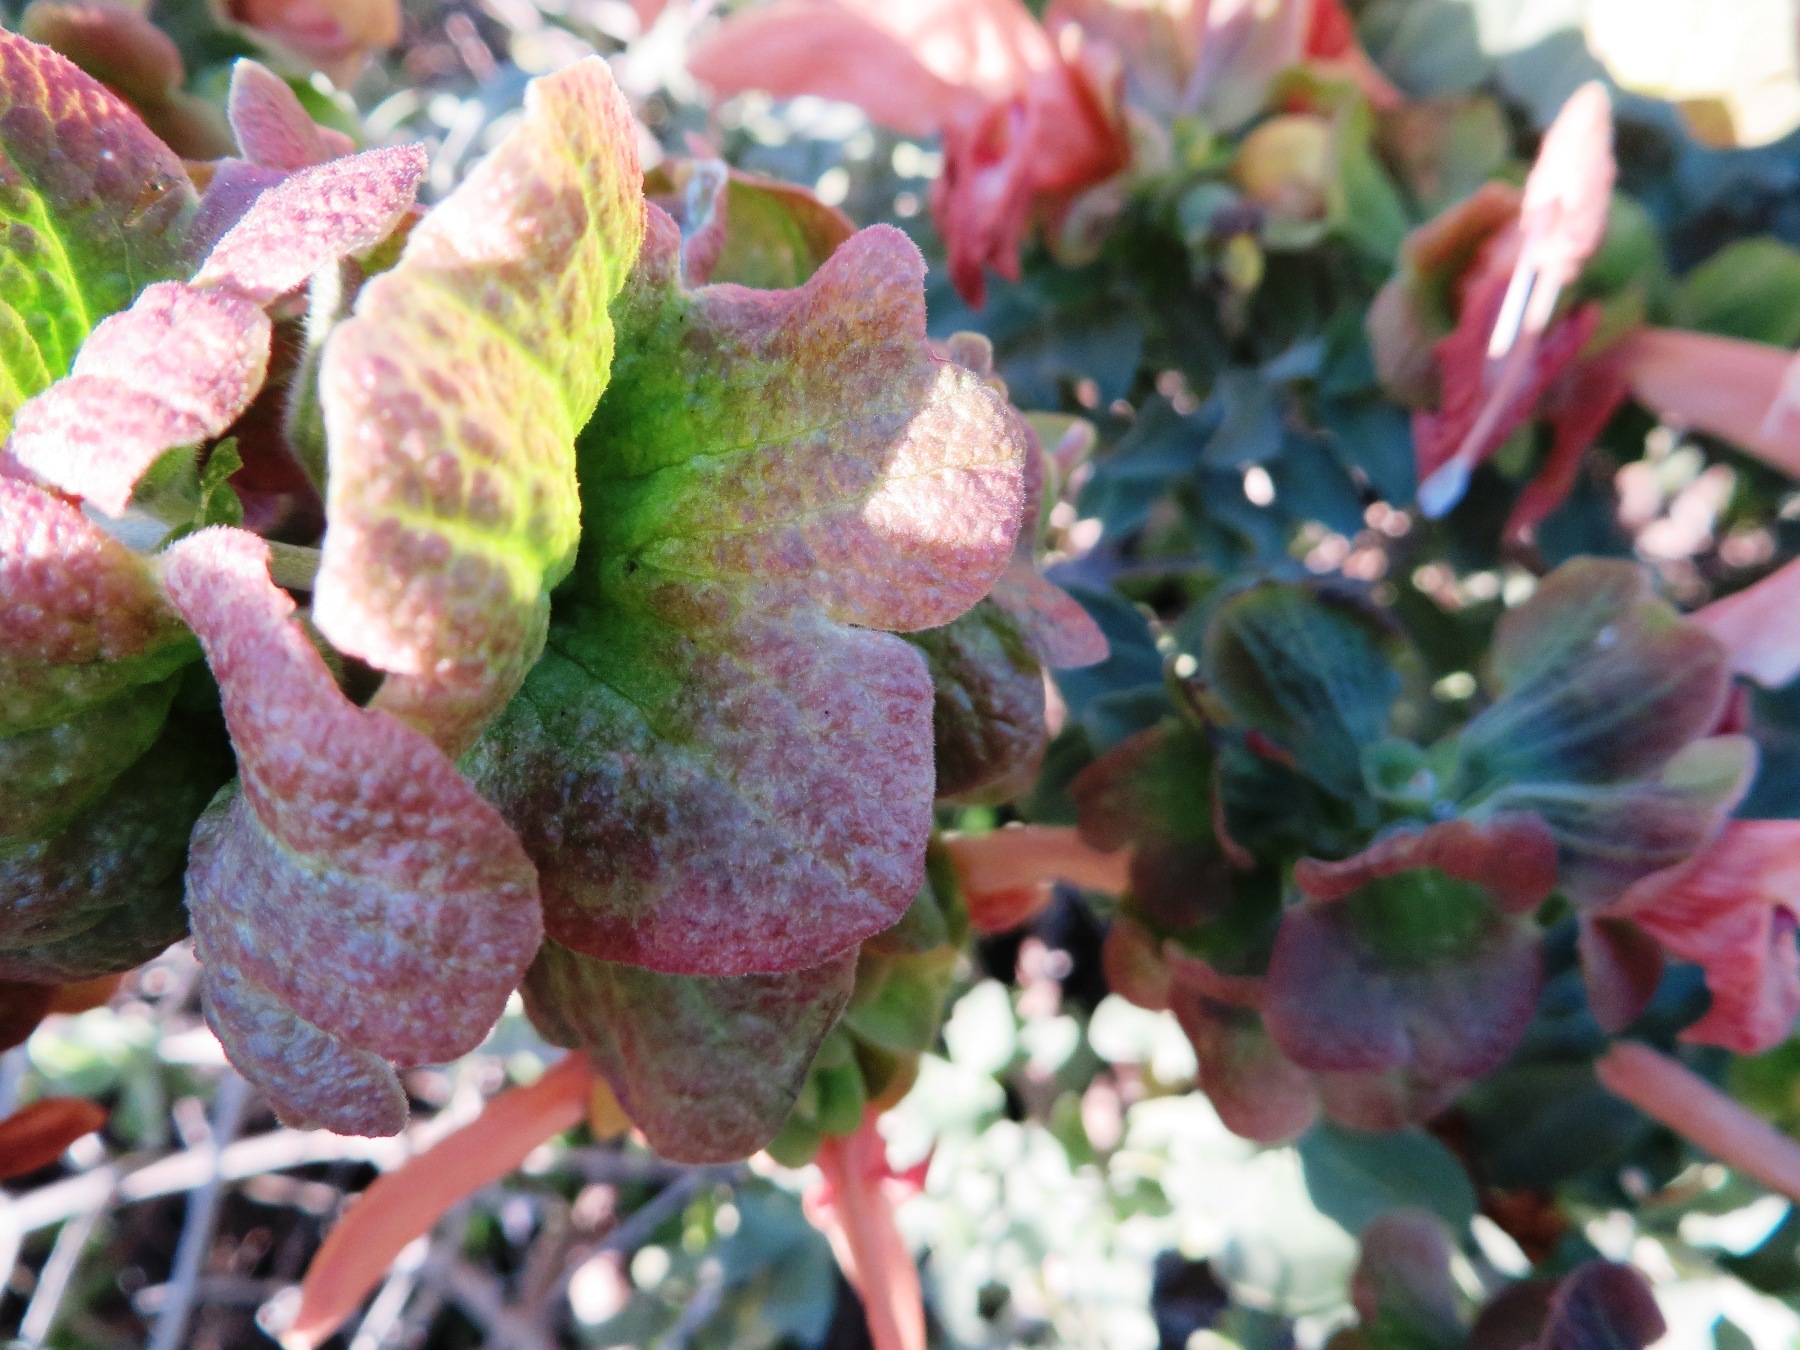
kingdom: Plantae
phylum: Tracheophyta
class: Magnoliopsida
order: Lamiales
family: Lamiaceae
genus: Salvia
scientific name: Salvia aurea
